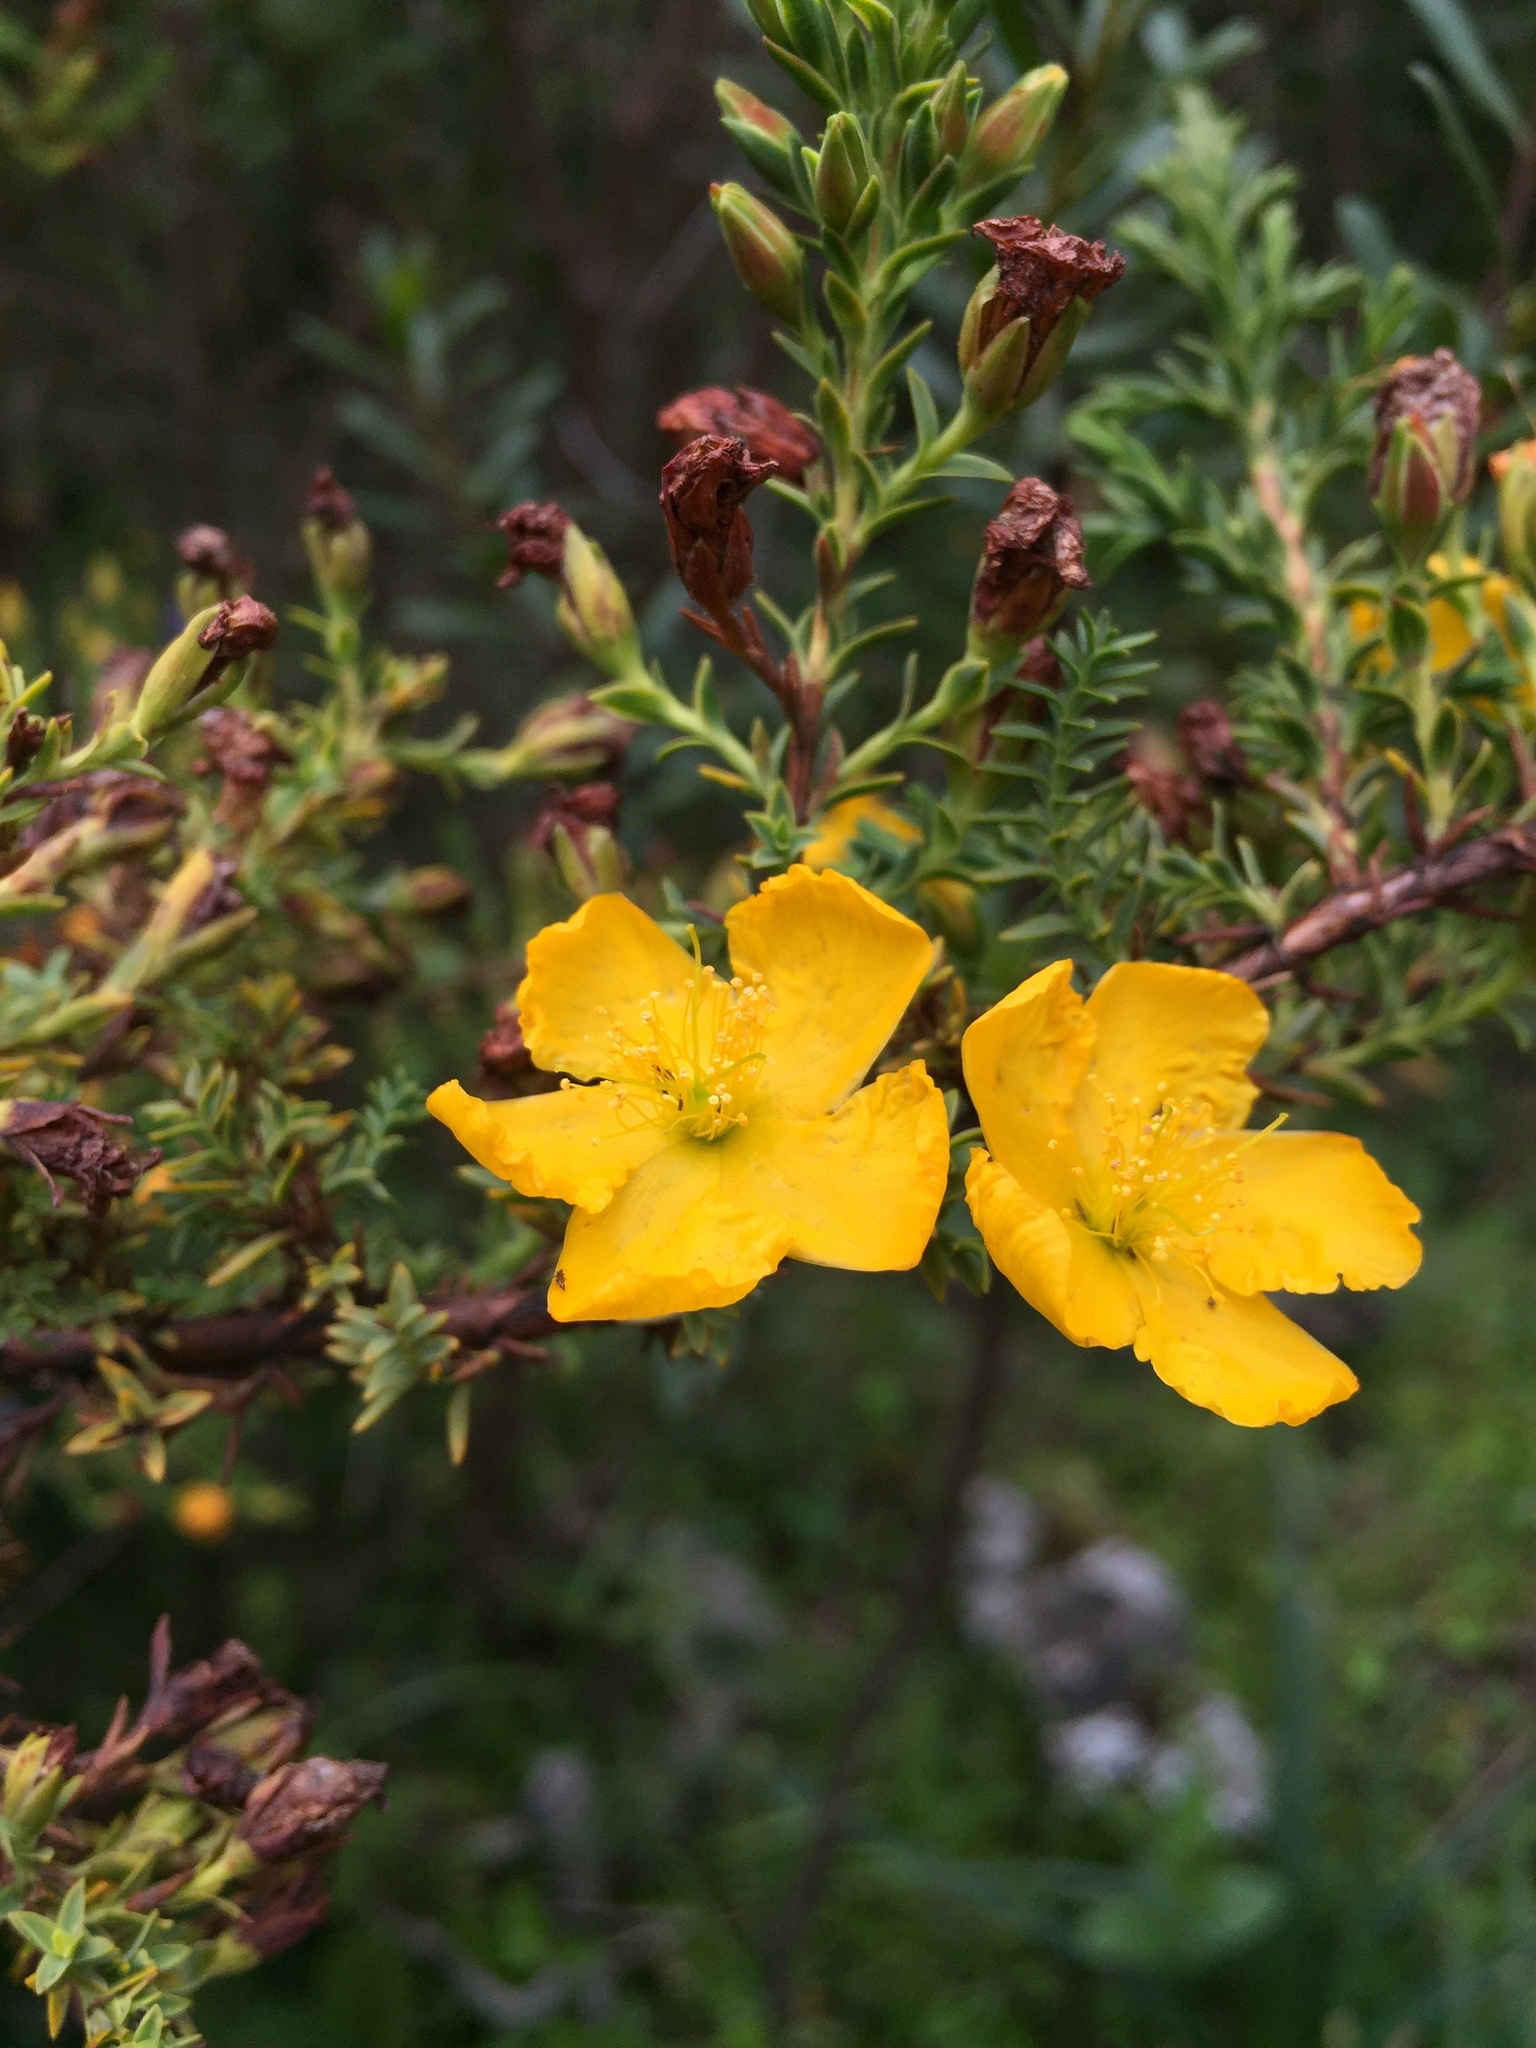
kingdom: Plantae
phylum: Tracheophyta
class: Magnoliopsida
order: Malpighiales
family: Hypericaceae
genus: Hypericum
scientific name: Hypericum laricifolium
